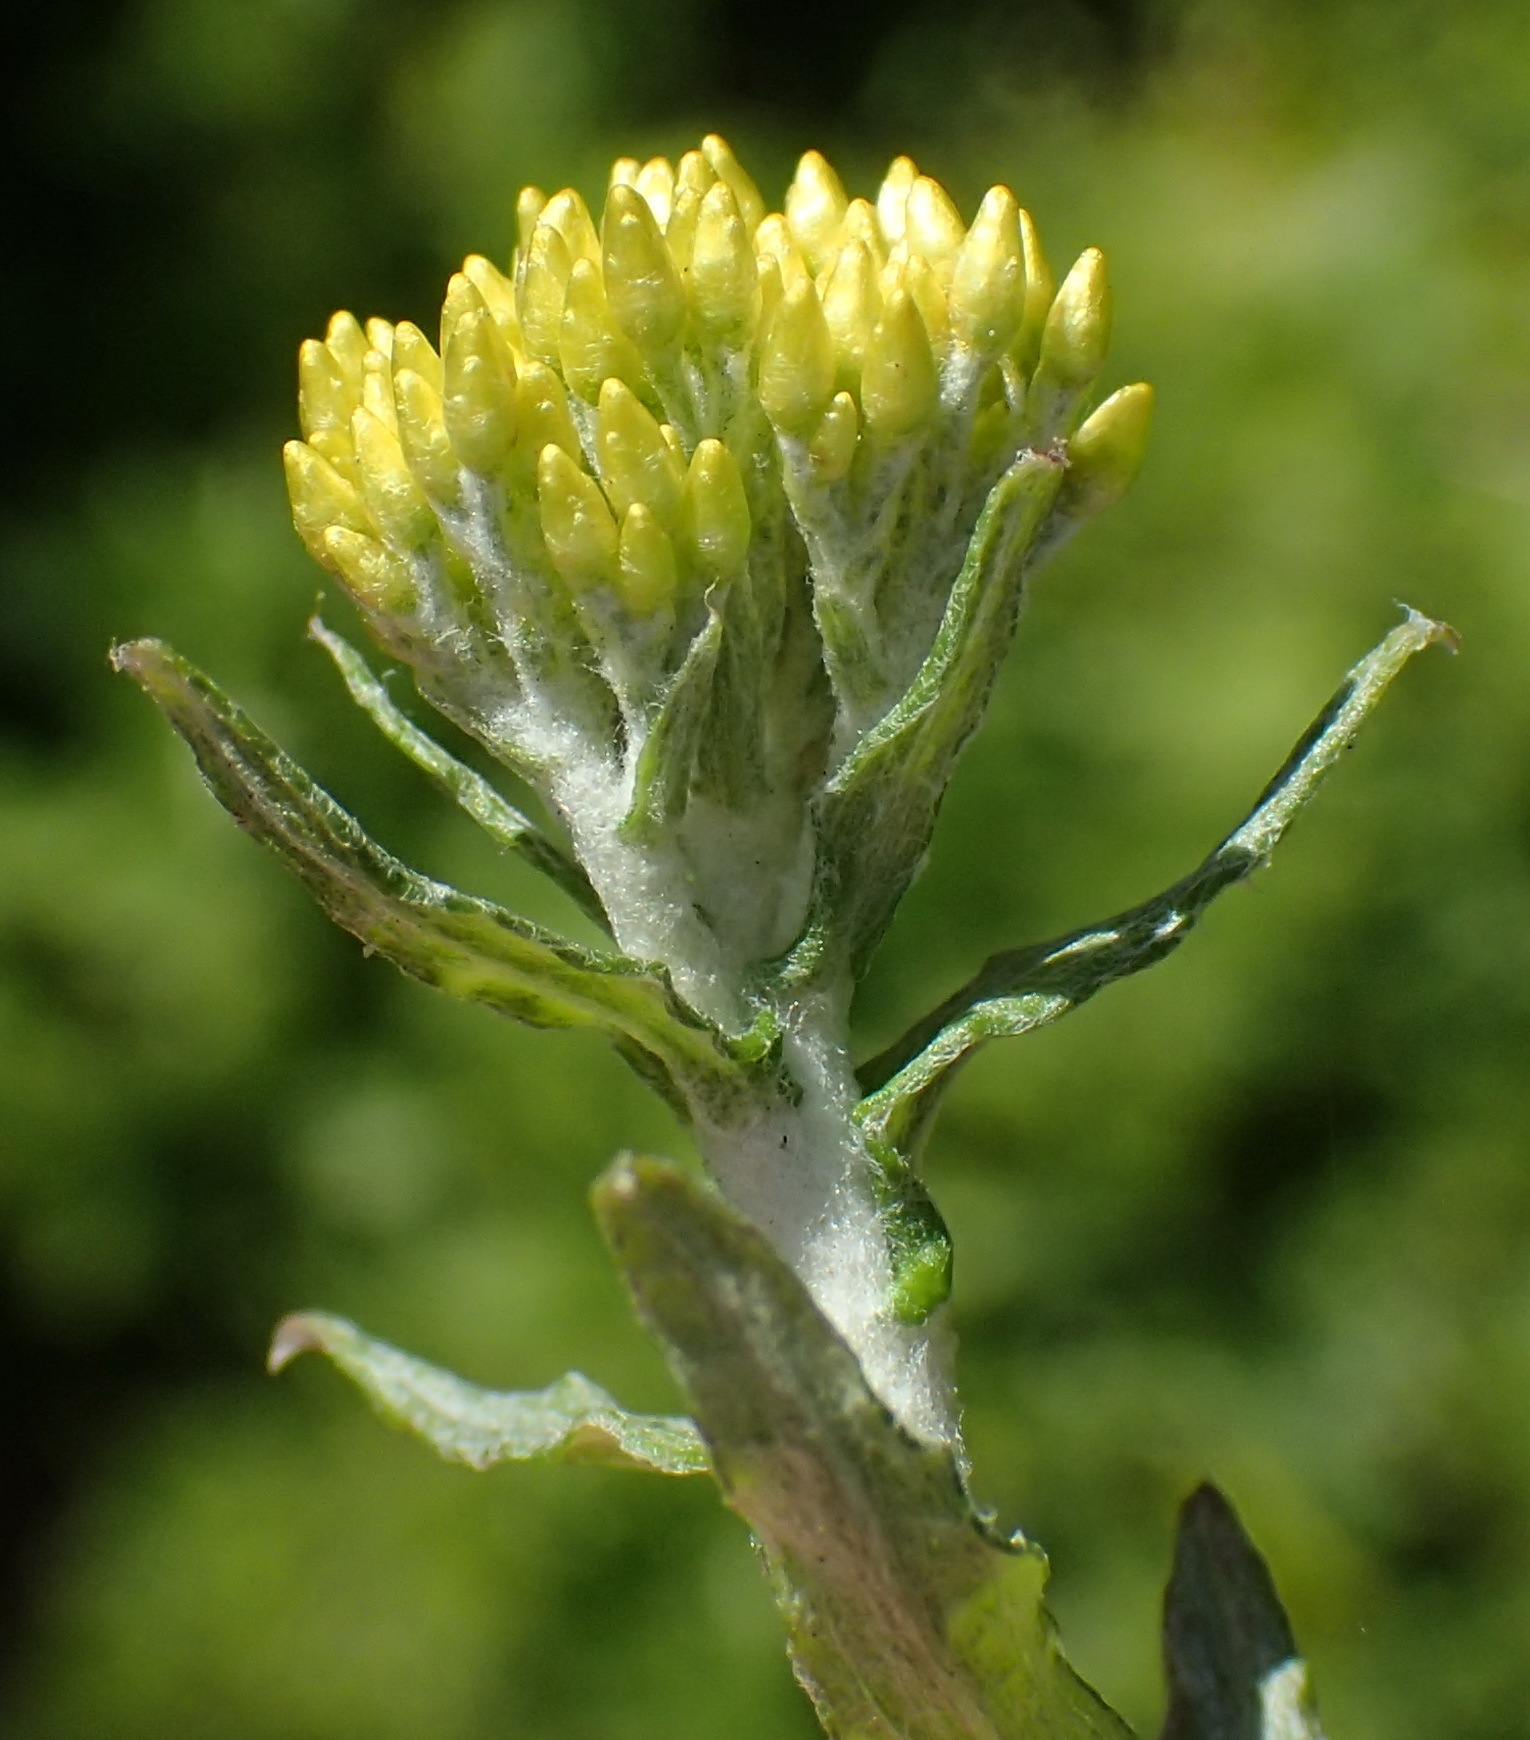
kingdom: Plantae
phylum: Tracheophyta
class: Magnoliopsida
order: Asterales
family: Asteraceae
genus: Helichrysum
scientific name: Helichrysum cymosum
